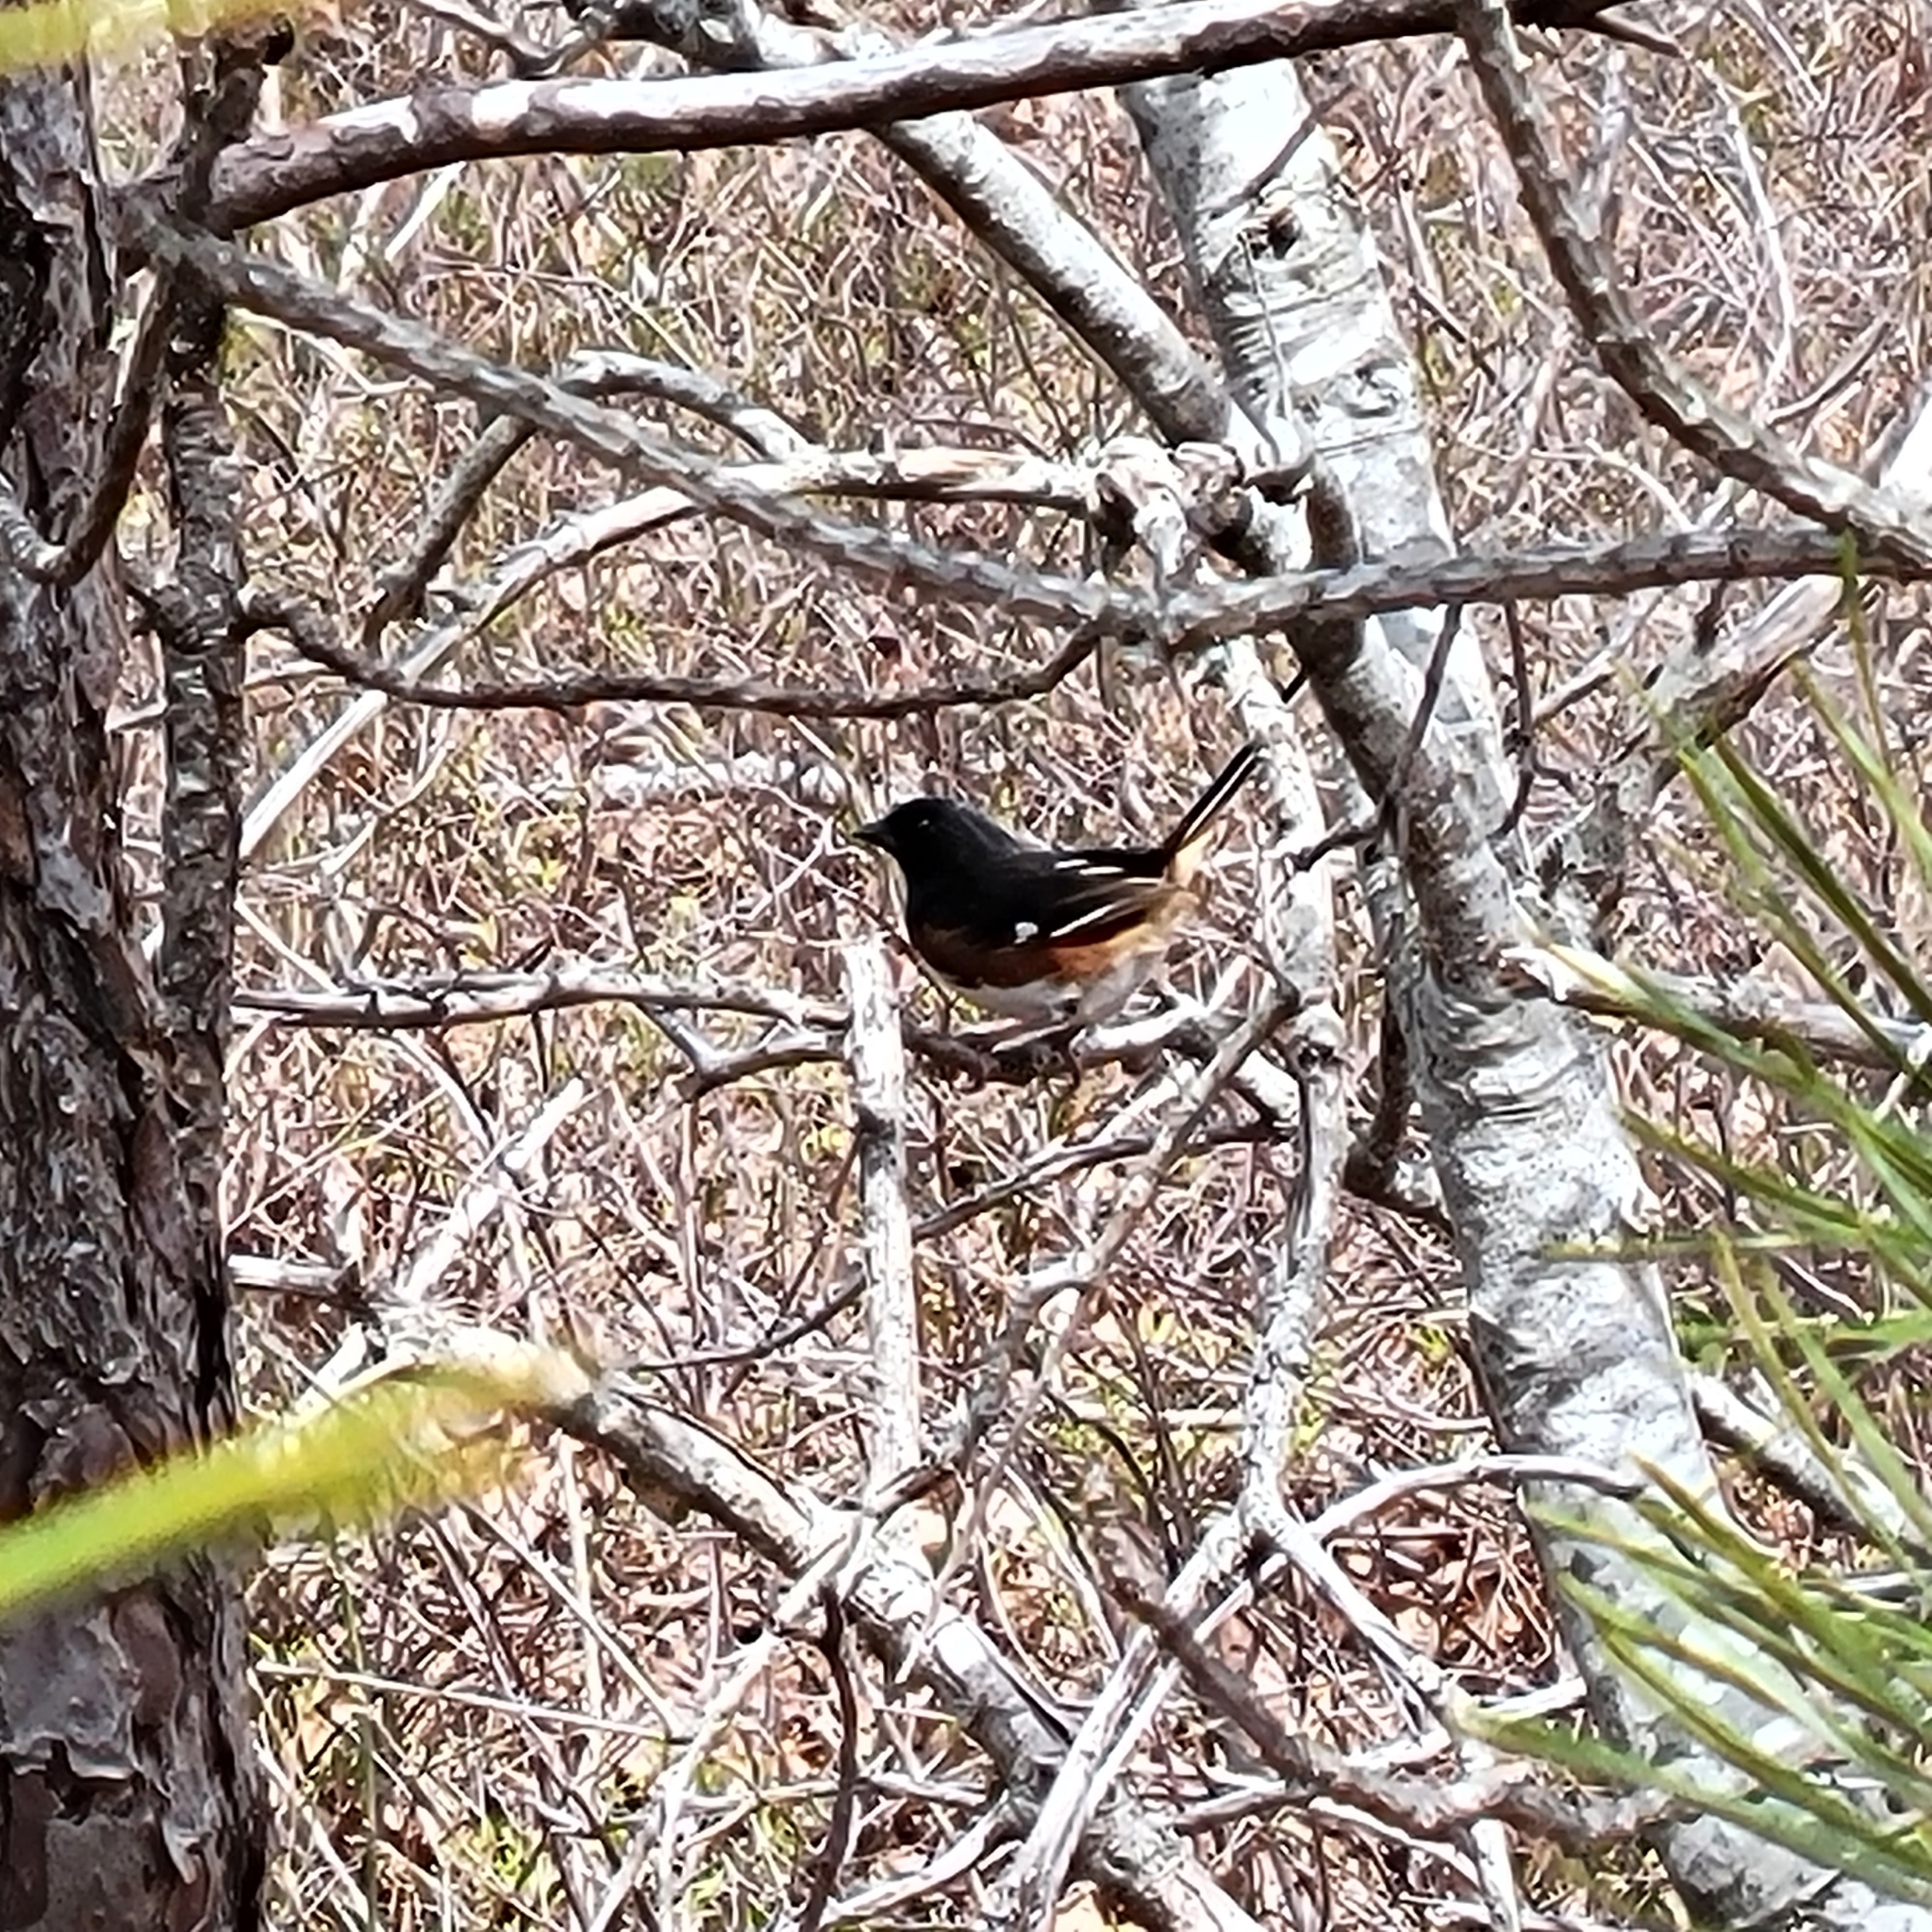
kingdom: Animalia
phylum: Chordata
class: Aves
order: Passeriformes
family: Passerellidae
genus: Pipilo
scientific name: Pipilo erythrophthalmus
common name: Eastern towhee
